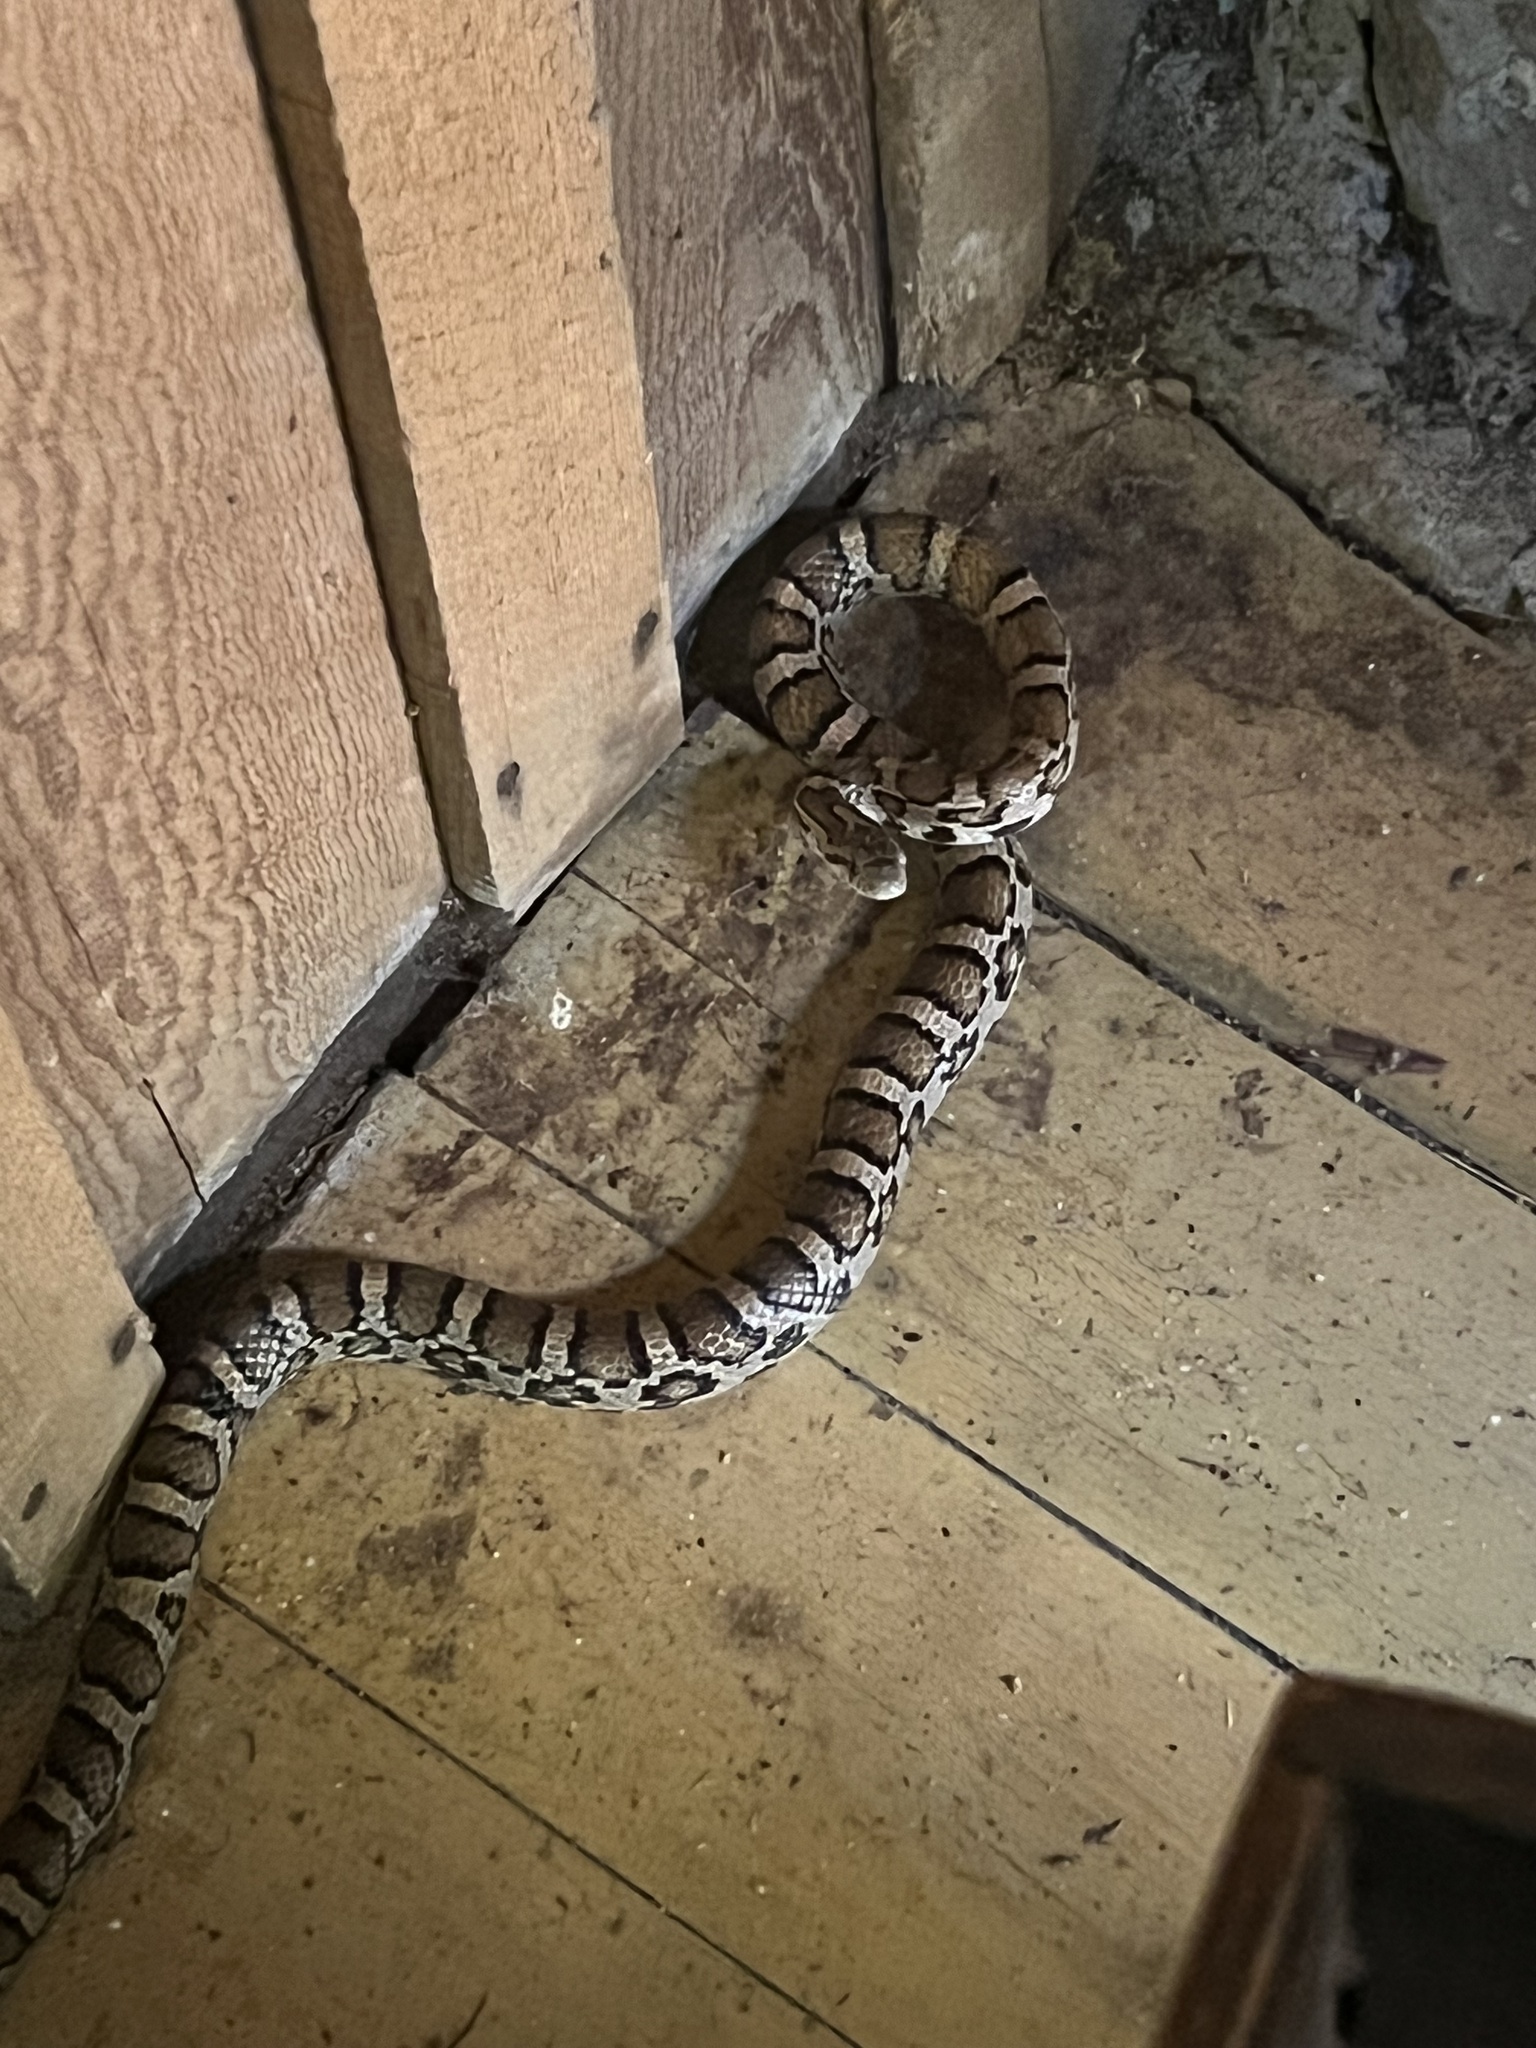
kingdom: Animalia
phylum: Chordata
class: Squamata
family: Colubridae
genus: Lampropeltis
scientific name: Lampropeltis triangulum
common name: Eastern milksnake
